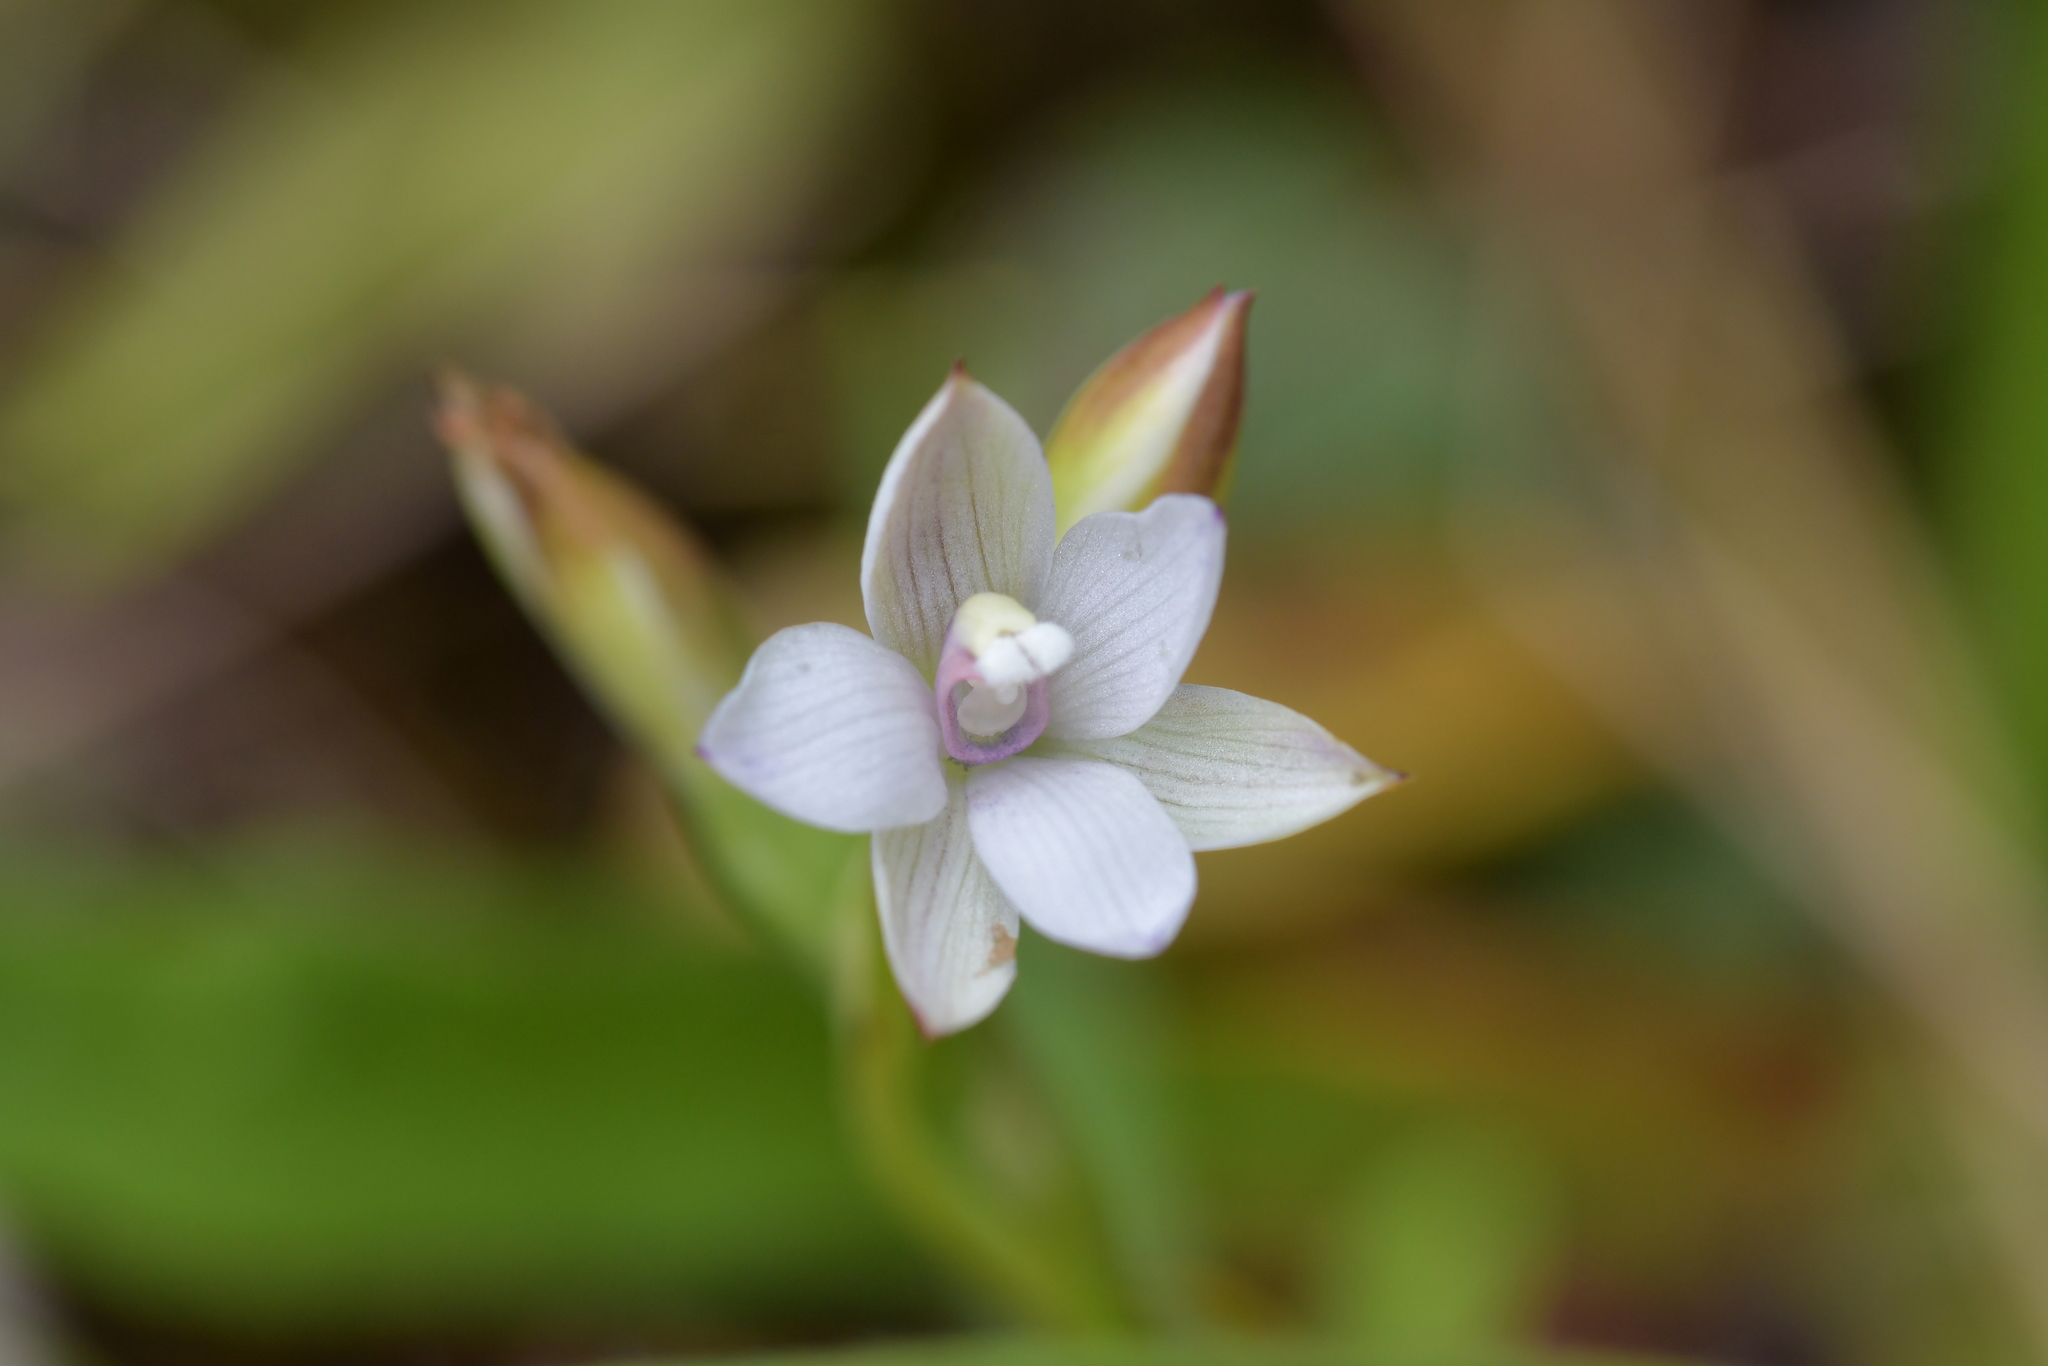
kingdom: Plantae
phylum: Tracheophyta
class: Liliopsida
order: Asparagales
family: Orchidaceae
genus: Thelymitra
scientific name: Thelymitra longifolia
